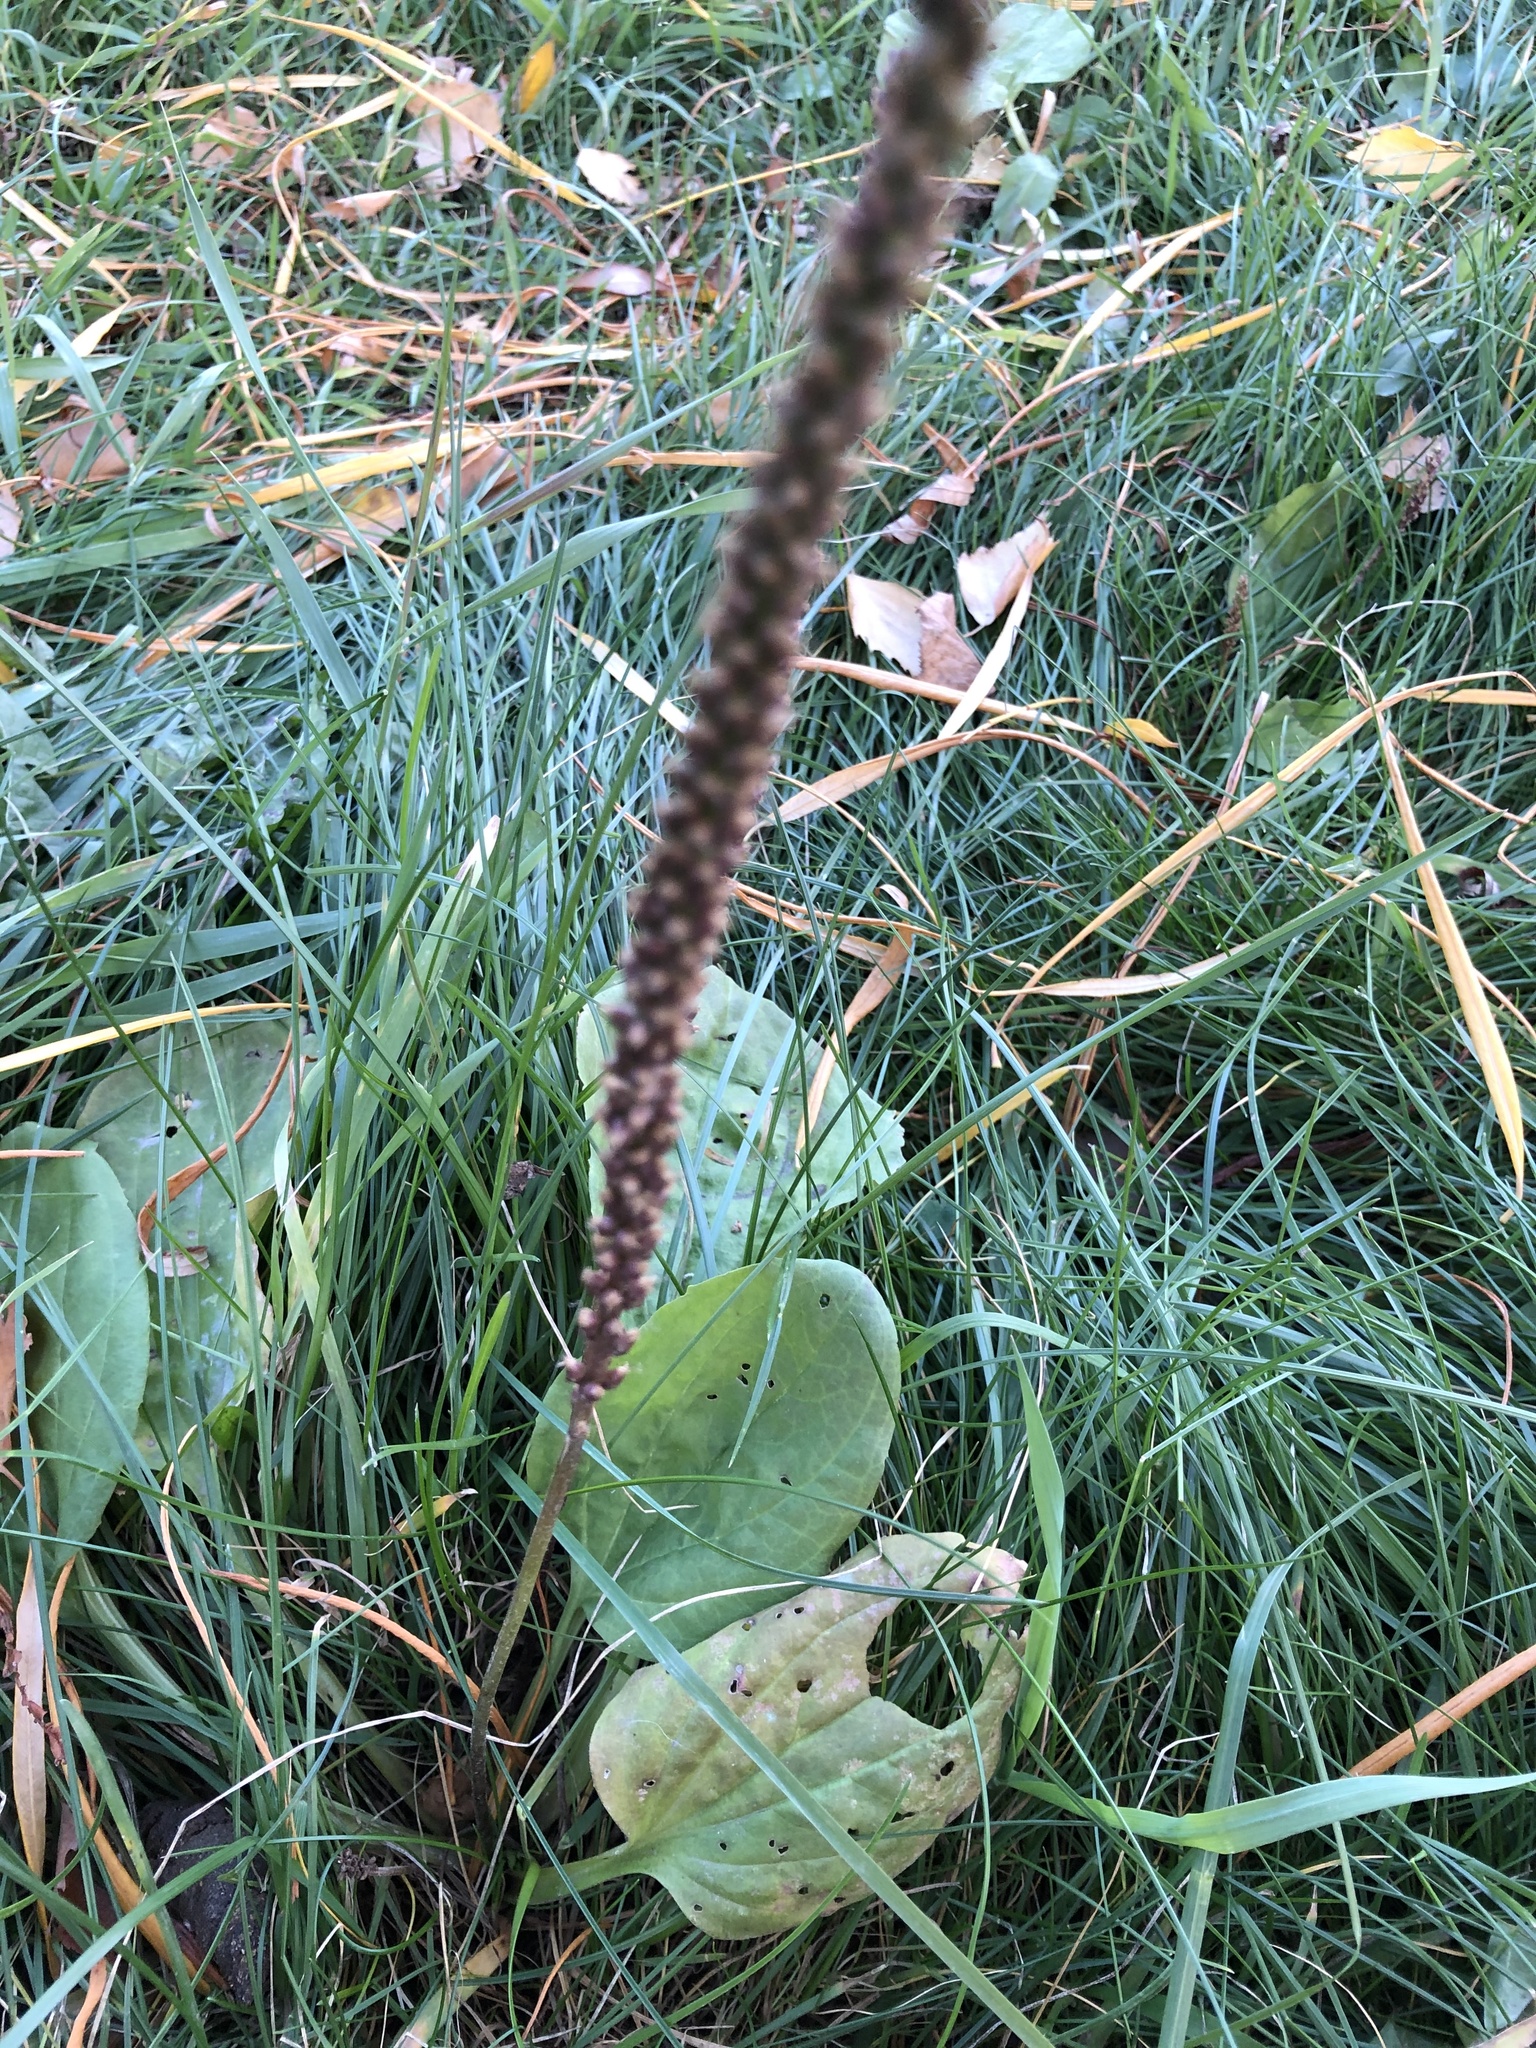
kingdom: Plantae
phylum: Tracheophyta
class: Magnoliopsida
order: Lamiales
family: Plantaginaceae
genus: Plantago
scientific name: Plantago major
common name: Common plantain
